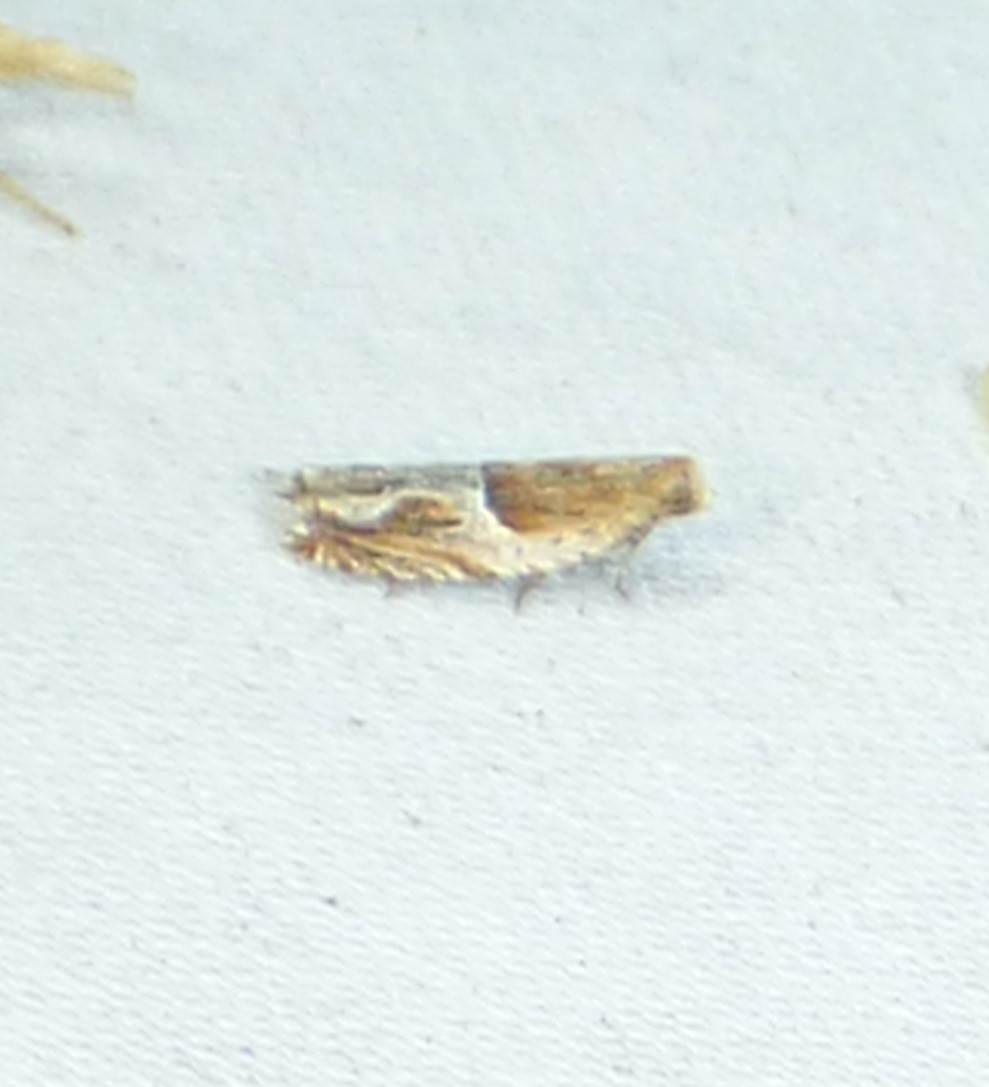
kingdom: Animalia
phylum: Arthropoda
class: Insecta
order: Lepidoptera
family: Tortricidae
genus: Ancylis
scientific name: Ancylis comptana
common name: Little roller
